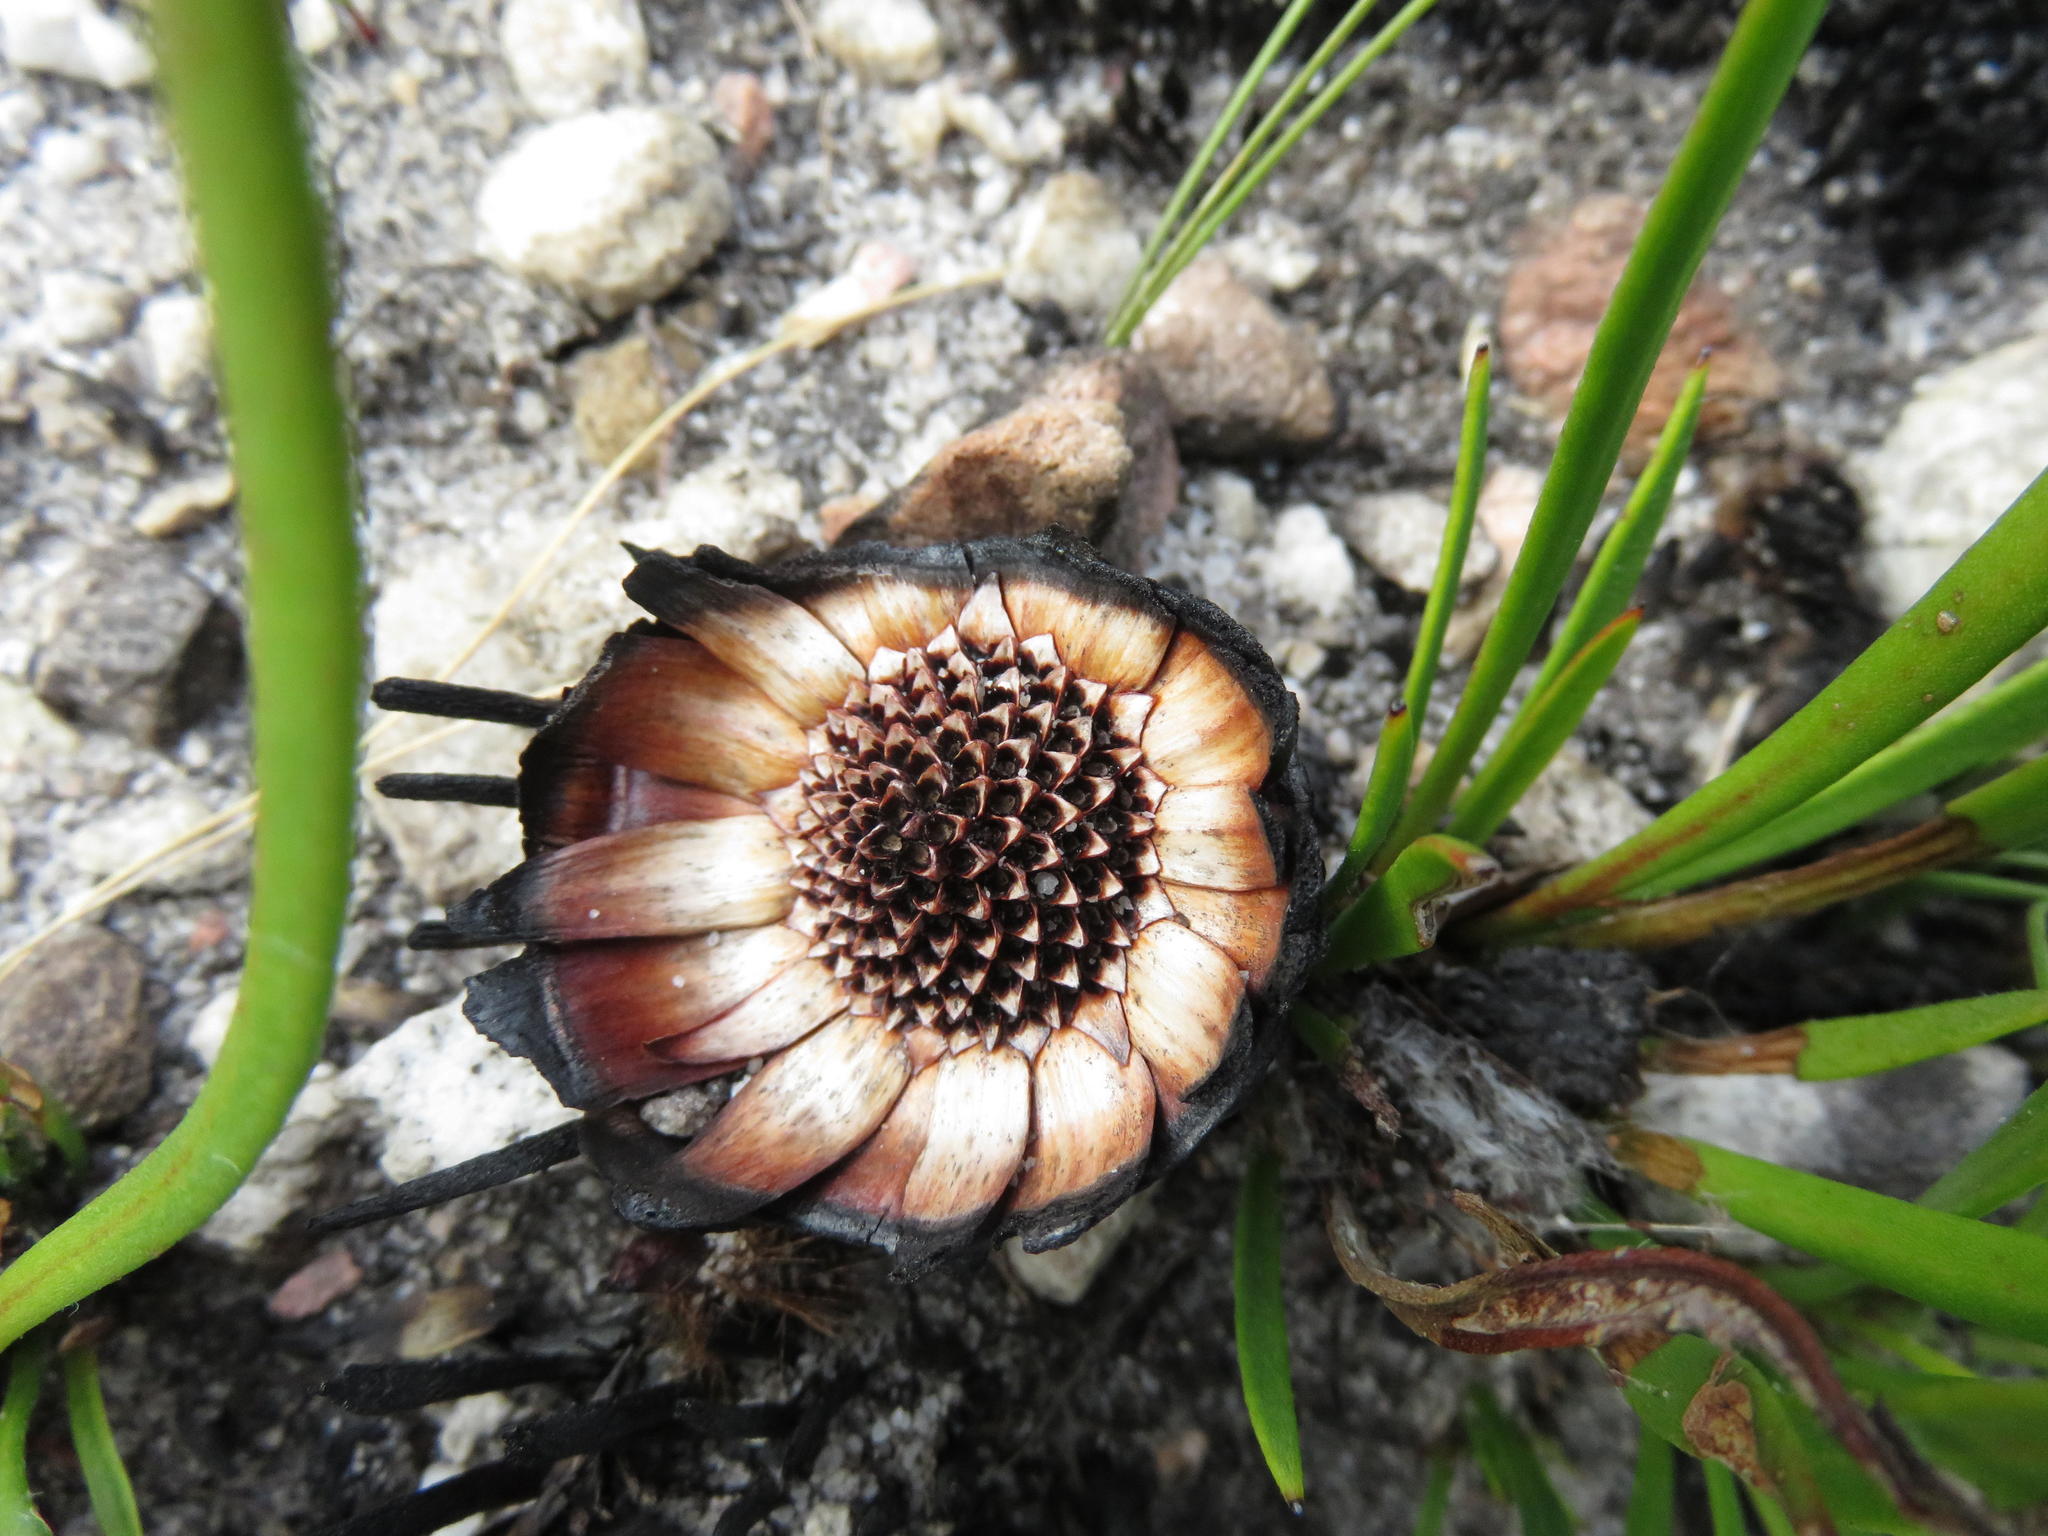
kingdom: Plantae
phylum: Tracheophyta
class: Magnoliopsida
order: Proteales
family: Proteaceae
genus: Protea
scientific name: Protea scabra
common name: Sandpaper-leaf sugarbush
